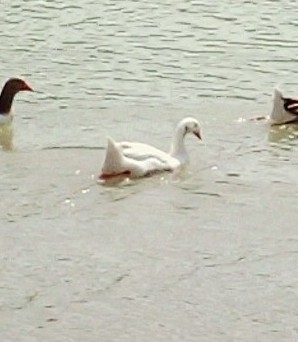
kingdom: Animalia
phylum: Chordata
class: Aves
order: Anseriformes
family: Anatidae
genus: Anser
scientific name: Anser anser
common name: Greylag goose
